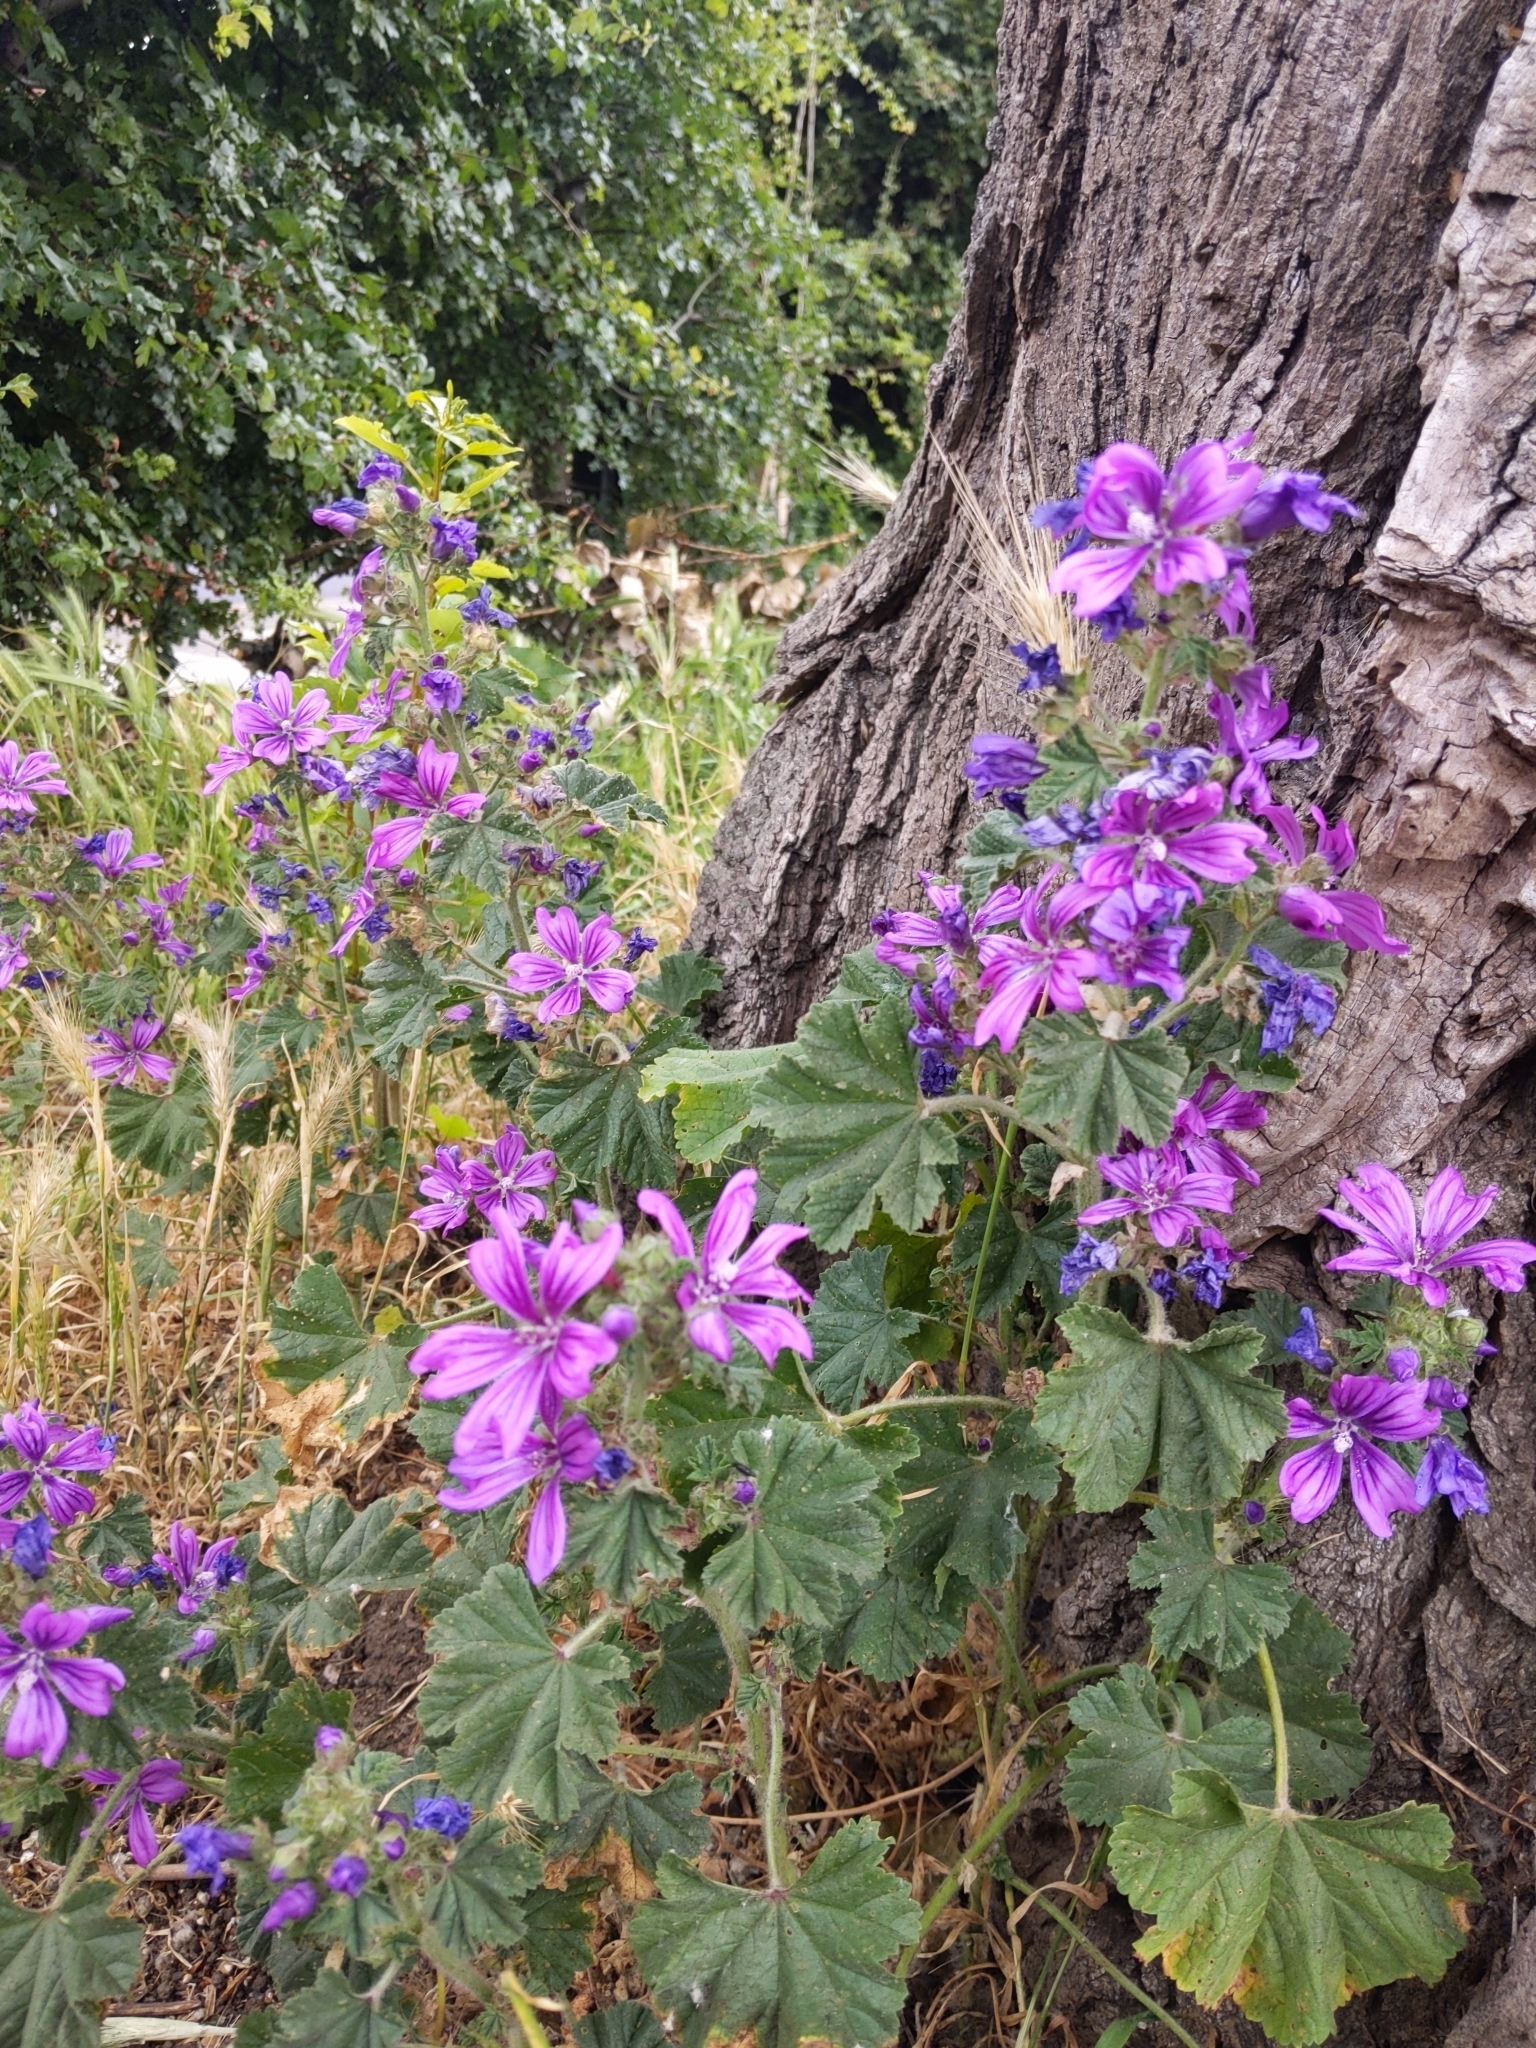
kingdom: Plantae
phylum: Tracheophyta
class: Magnoliopsida
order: Malvales
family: Malvaceae
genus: Malva
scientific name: Malva sylvestris
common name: Common mallow
